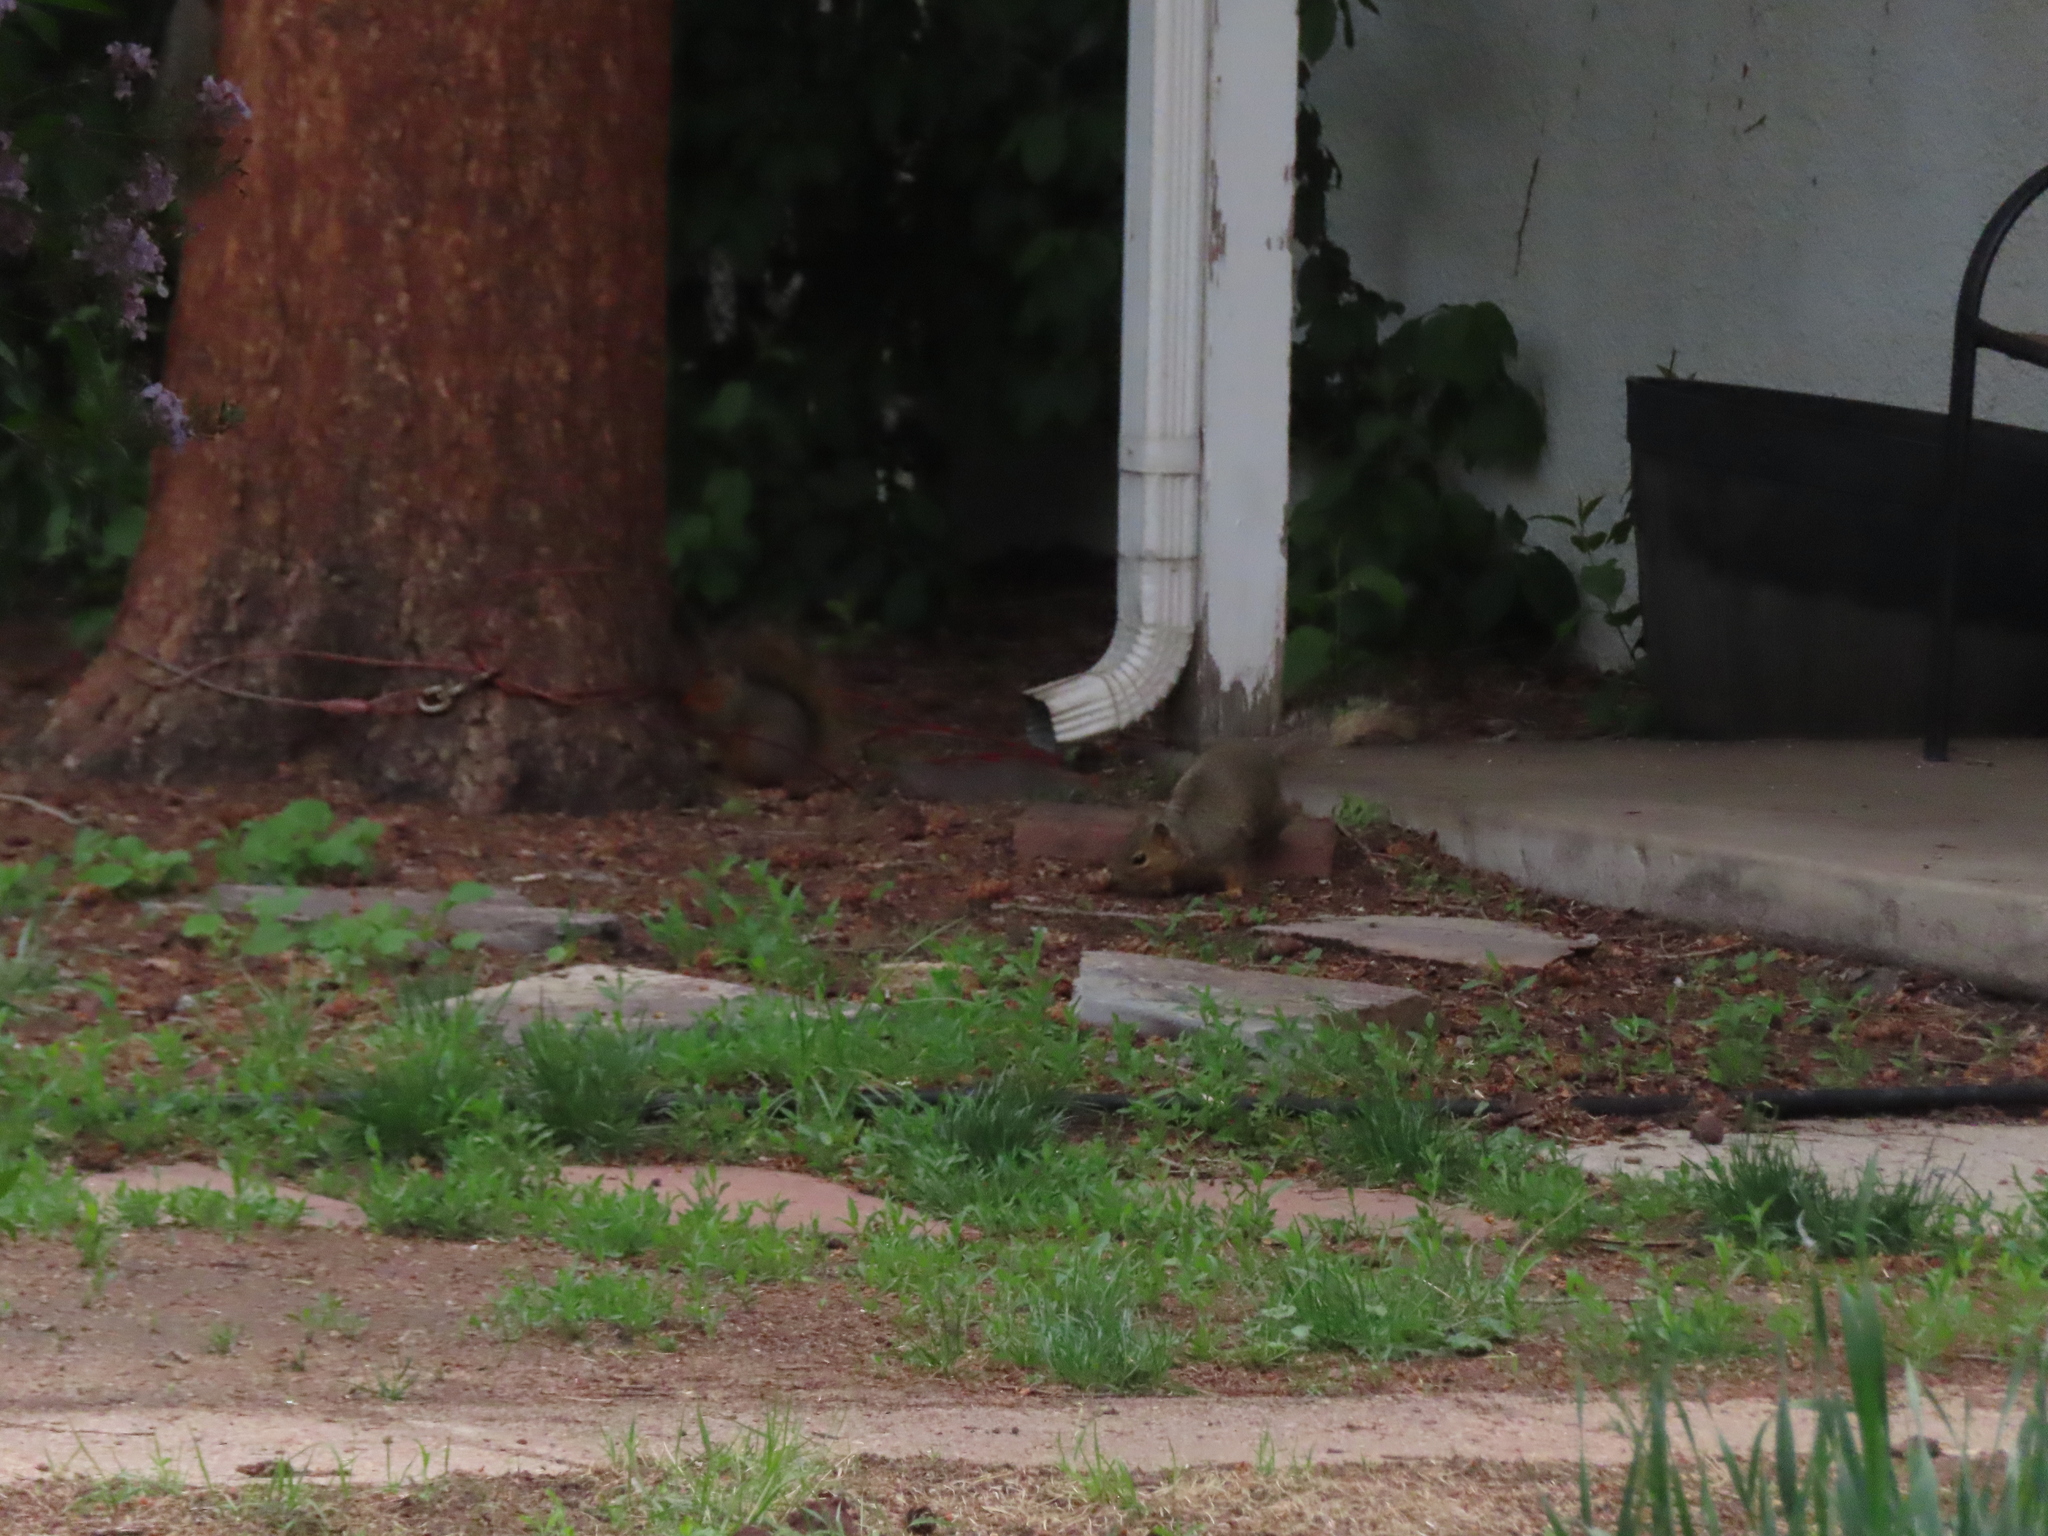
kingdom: Animalia
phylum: Chordata
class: Mammalia
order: Rodentia
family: Sciuridae
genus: Sciurus
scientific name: Sciurus niger
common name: Fox squirrel
